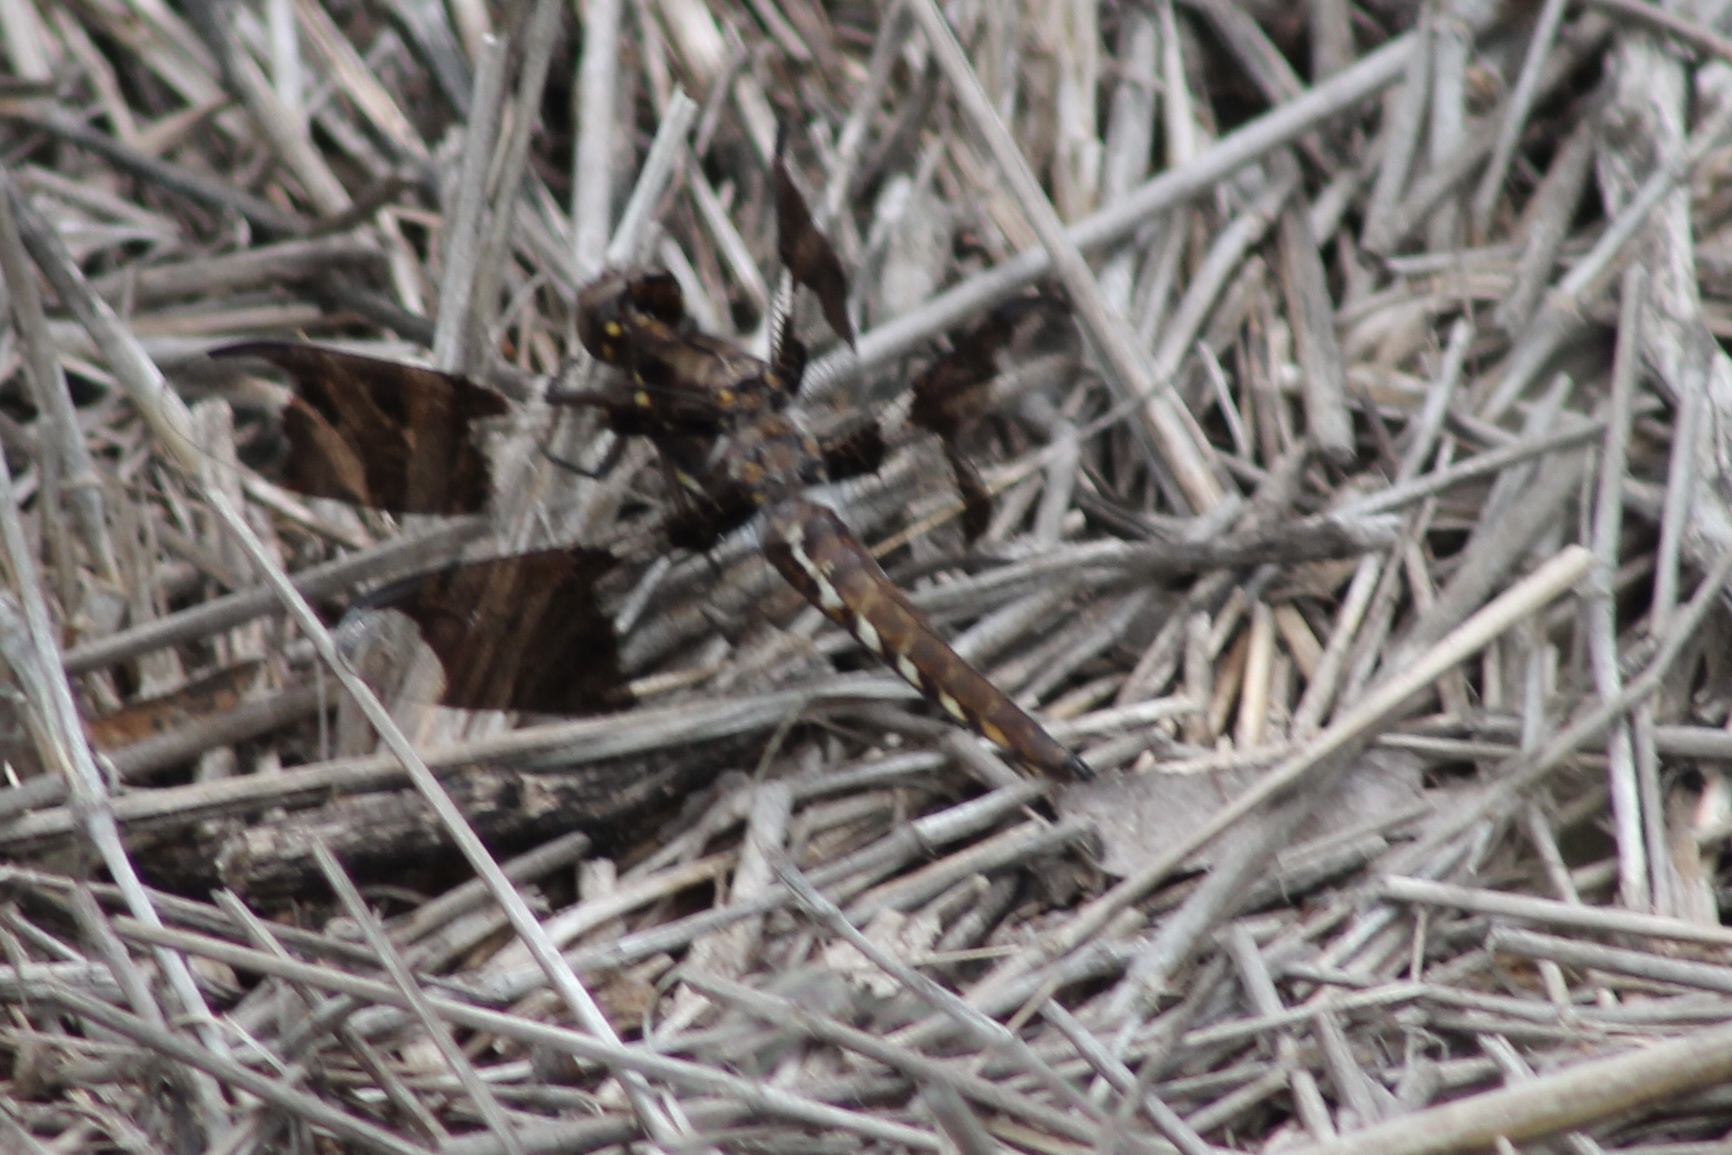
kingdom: Animalia
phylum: Arthropoda
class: Insecta
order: Odonata
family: Libellulidae
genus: Plathemis
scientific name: Plathemis lydia
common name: Common whitetail
